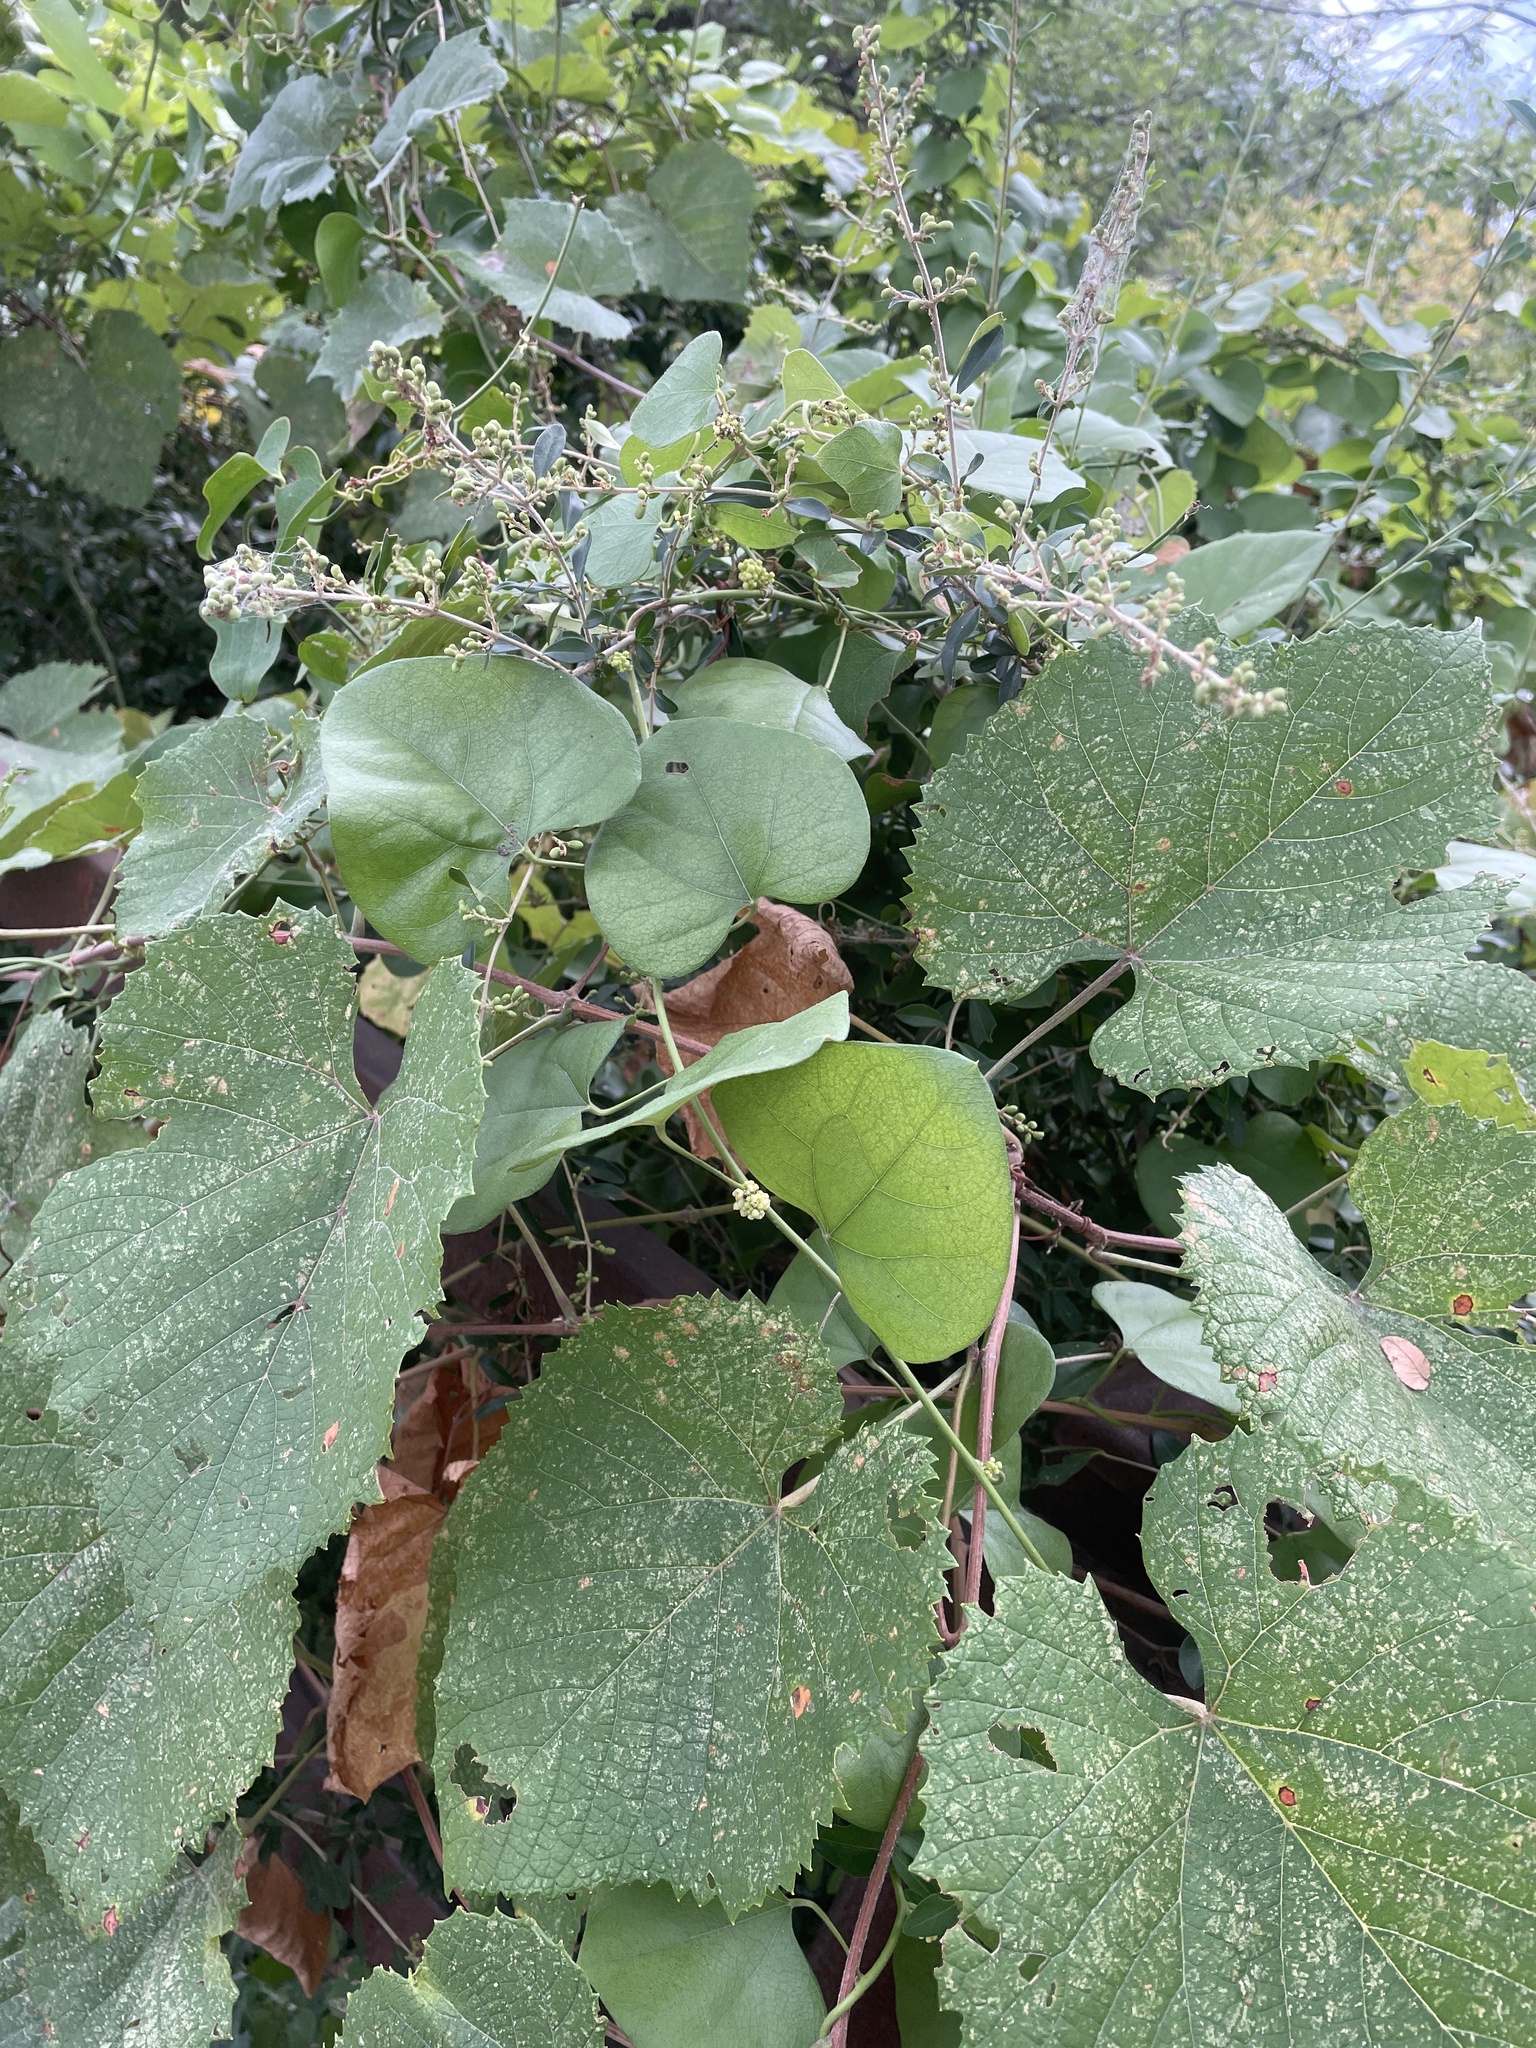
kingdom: Plantae
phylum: Tracheophyta
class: Magnoliopsida
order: Ranunculales
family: Menispermaceae
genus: Cocculus
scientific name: Cocculus carolinus
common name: Carolina moonseed
